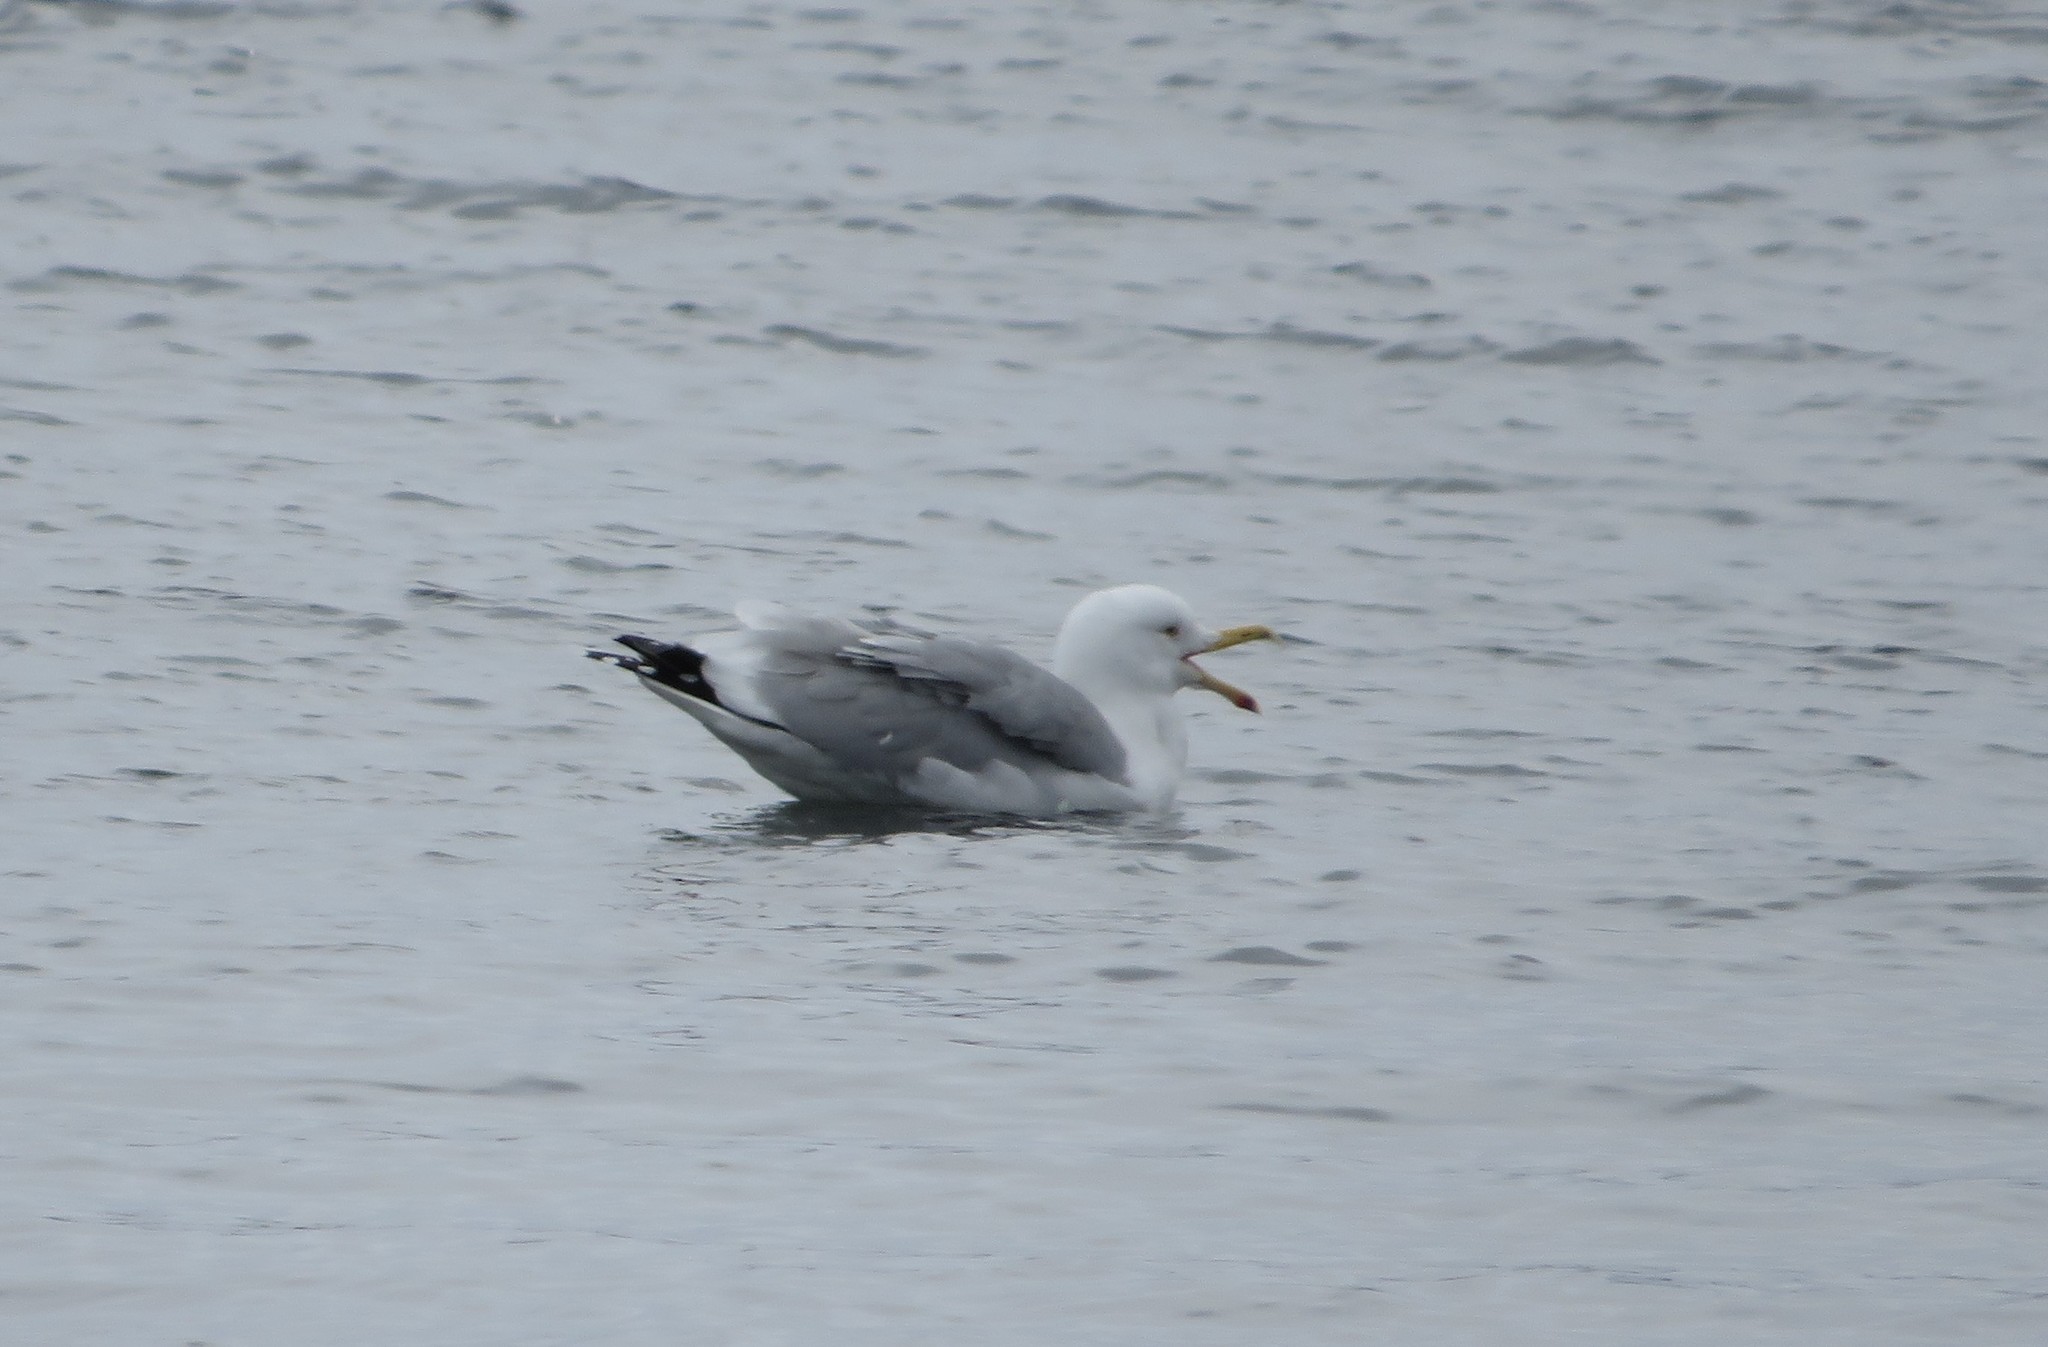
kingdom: Animalia
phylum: Chordata
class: Aves
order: Charadriiformes
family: Laridae
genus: Larus
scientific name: Larus argentatus
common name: Herring gull
